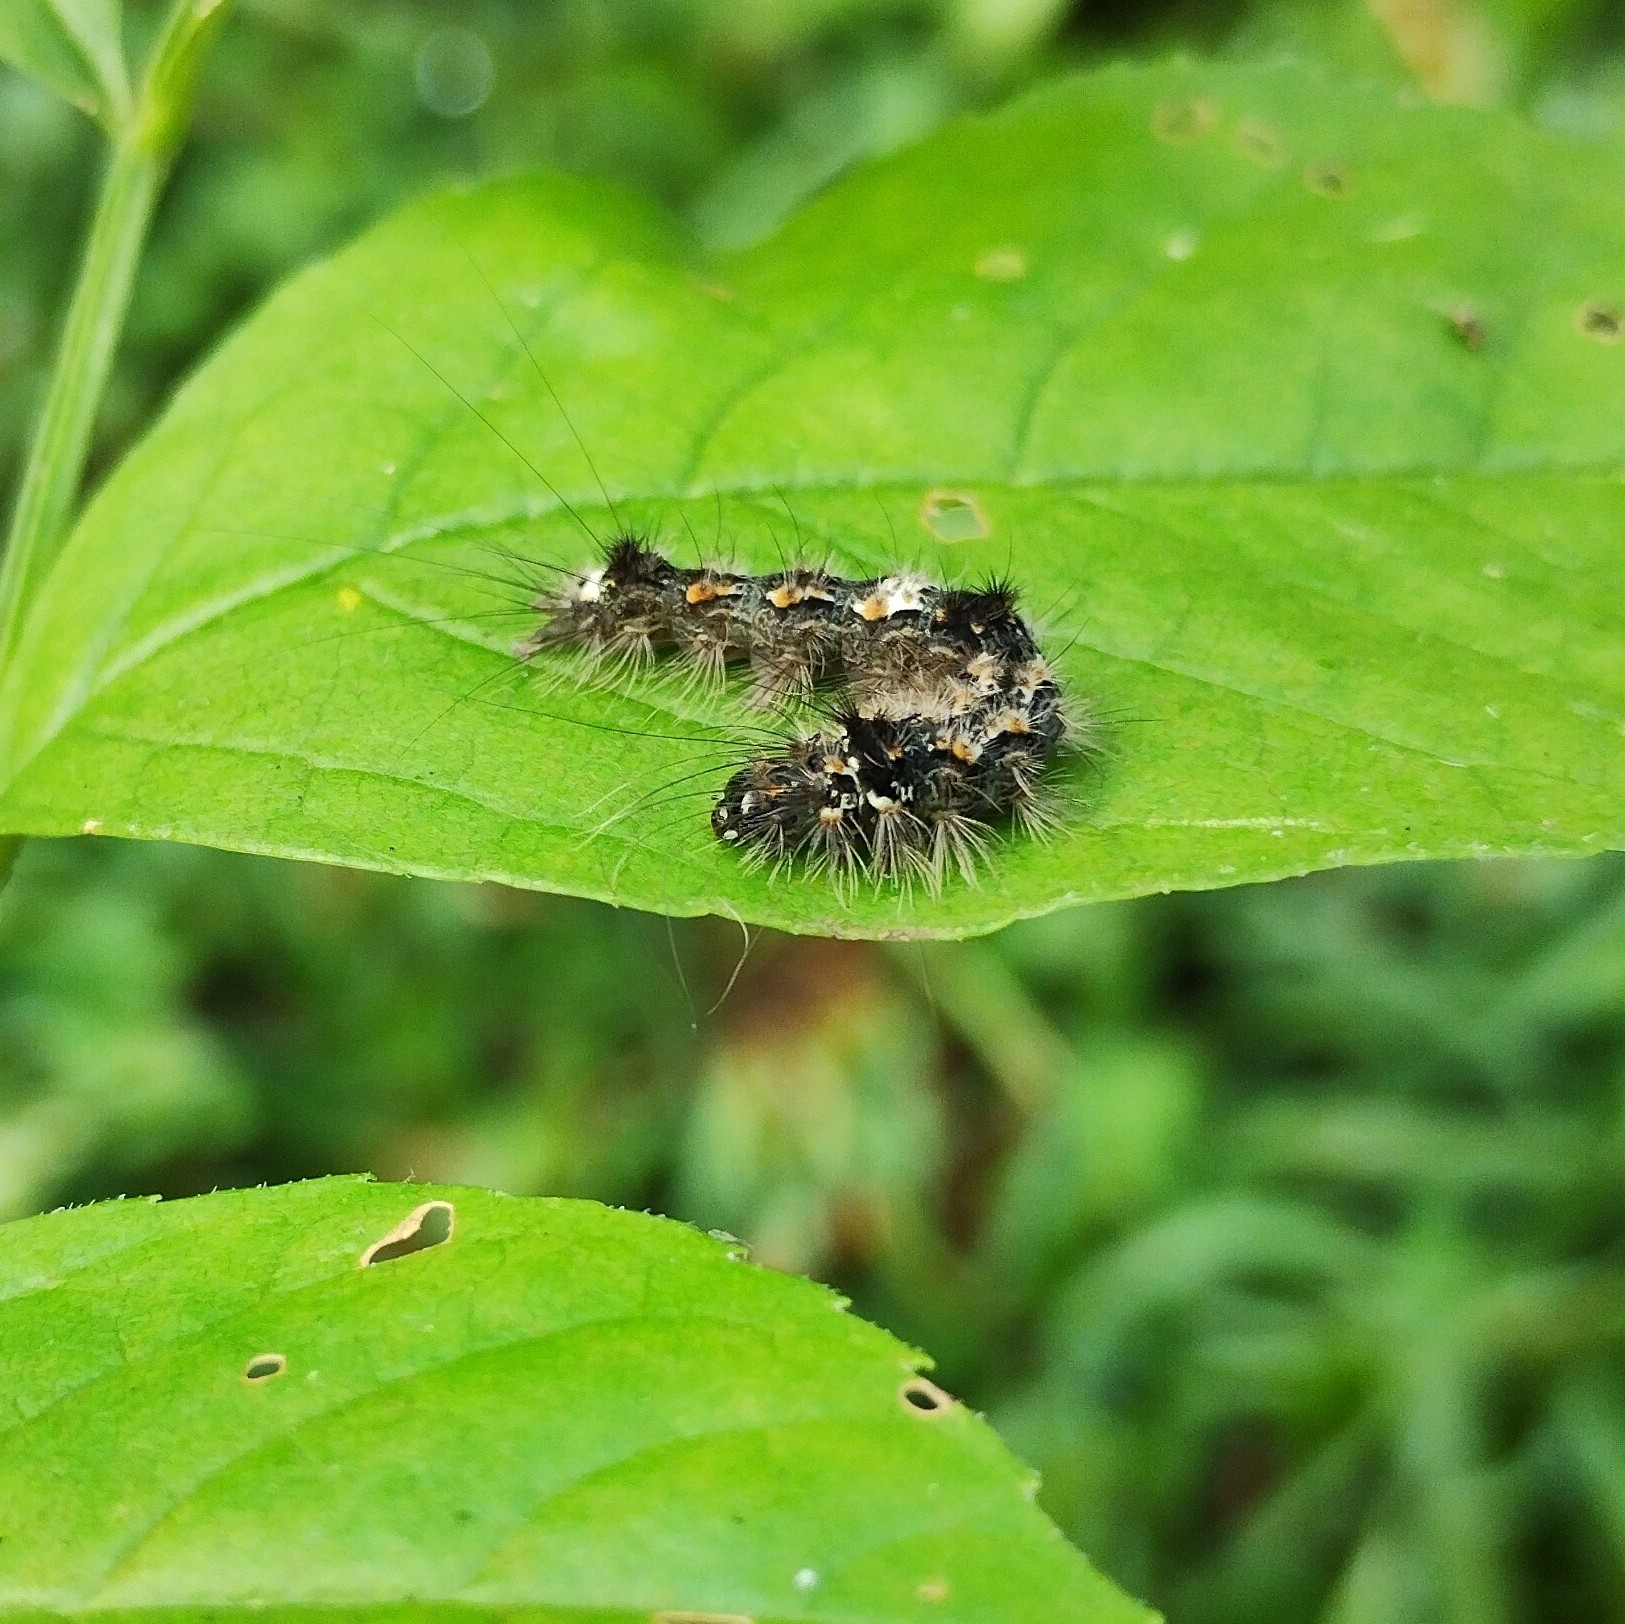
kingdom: Animalia
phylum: Arthropoda
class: Insecta
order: Lepidoptera
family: Erebidae
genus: Wittia
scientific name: Wittia sororcula
